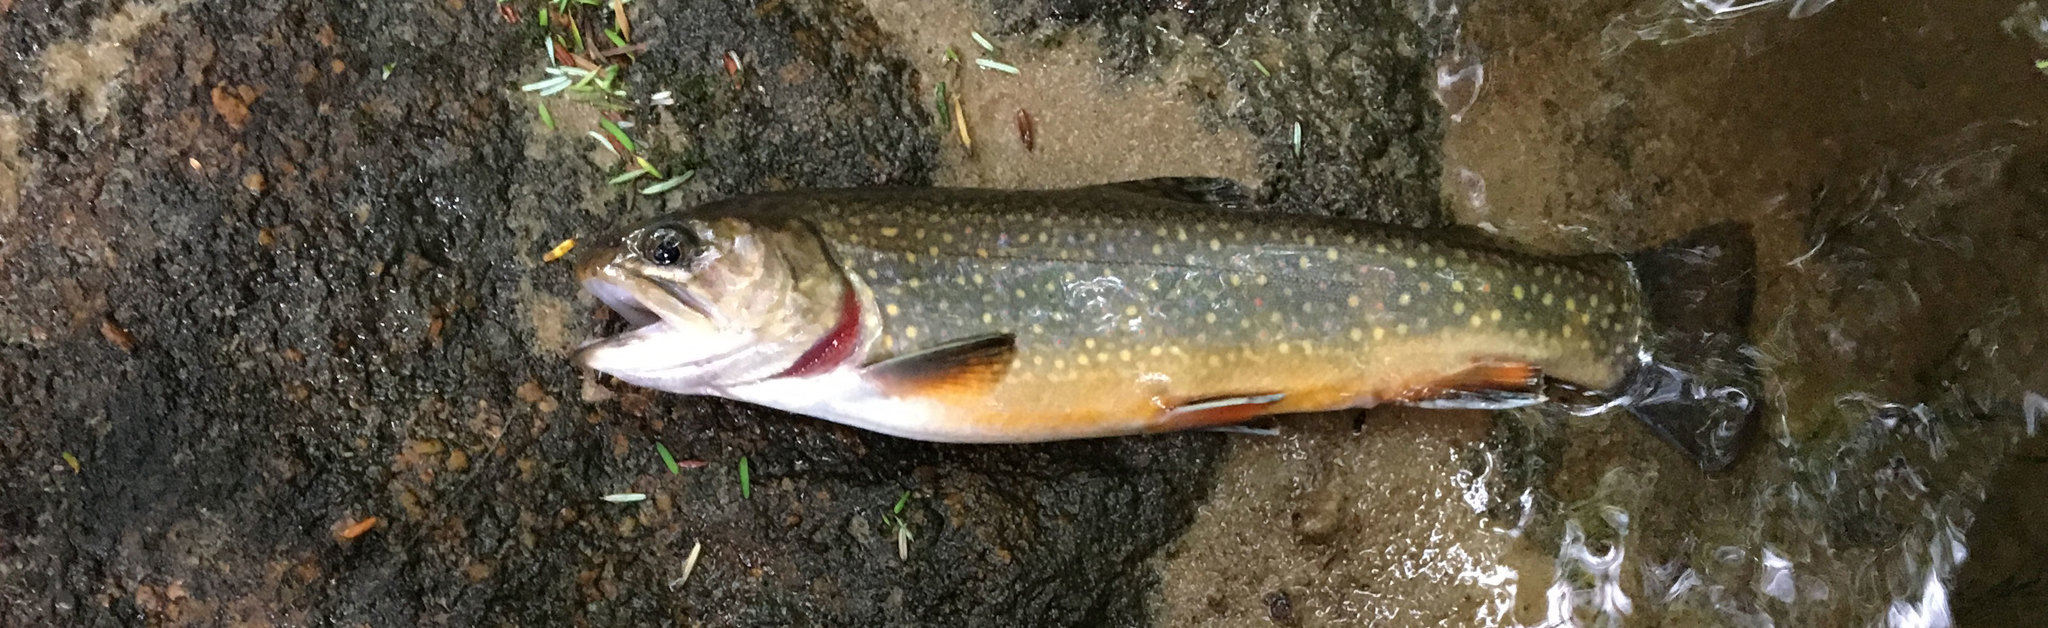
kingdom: Animalia
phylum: Chordata
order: Salmoniformes
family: Salmonidae
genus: Salvelinus
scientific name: Salvelinus fontinalis
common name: Brook trout
